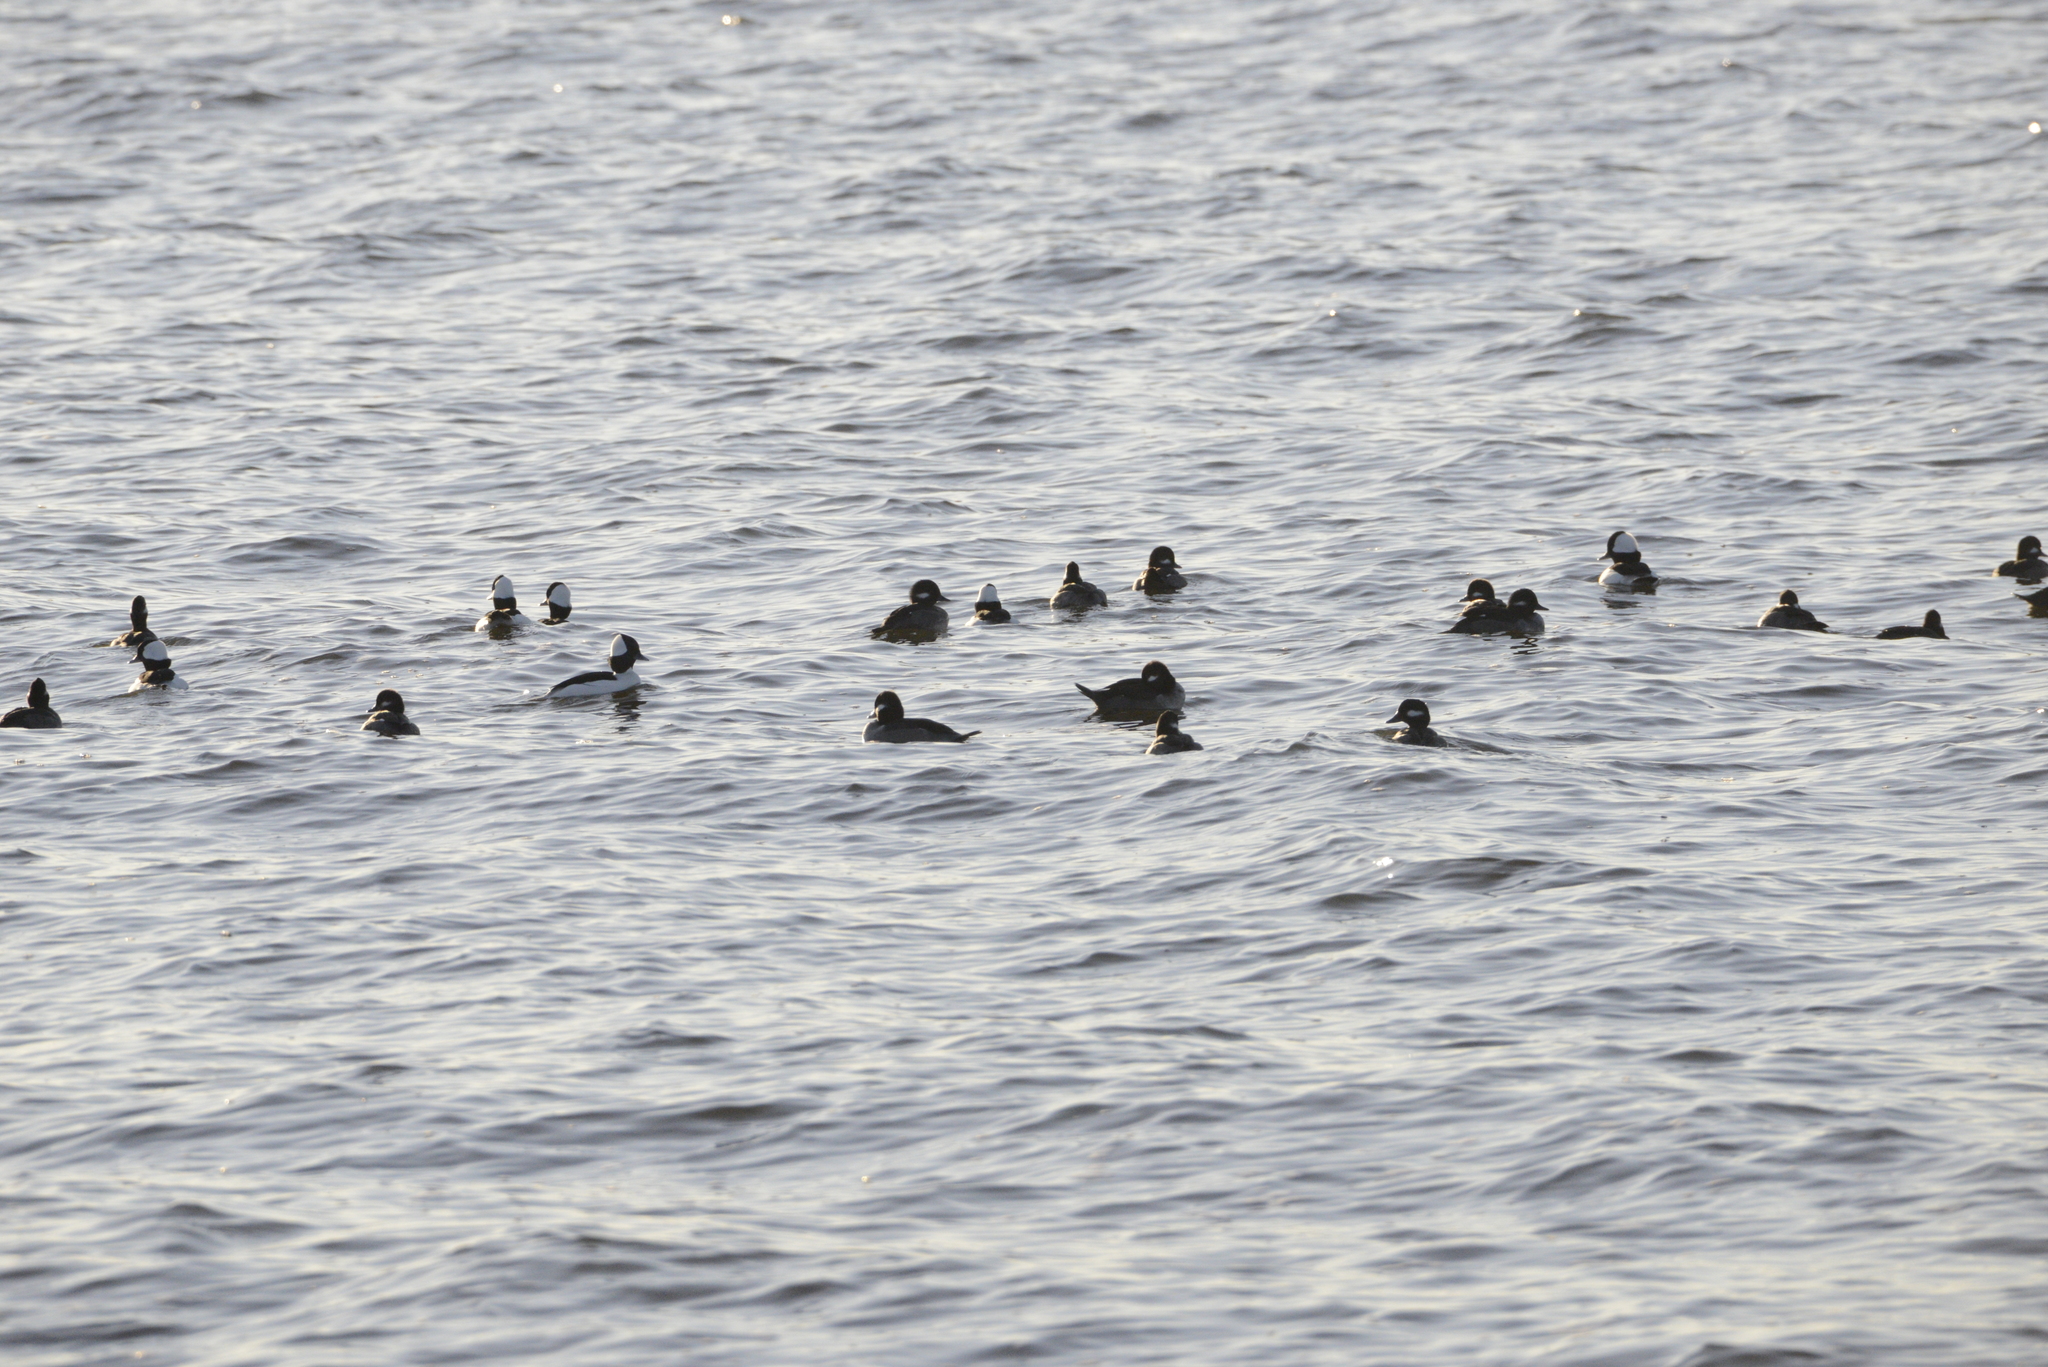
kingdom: Animalia
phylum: Chordata
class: Aves
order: Anseriformes
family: Anatidae
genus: Bucephala
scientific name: Bucephala albeola
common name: Bufflehead
